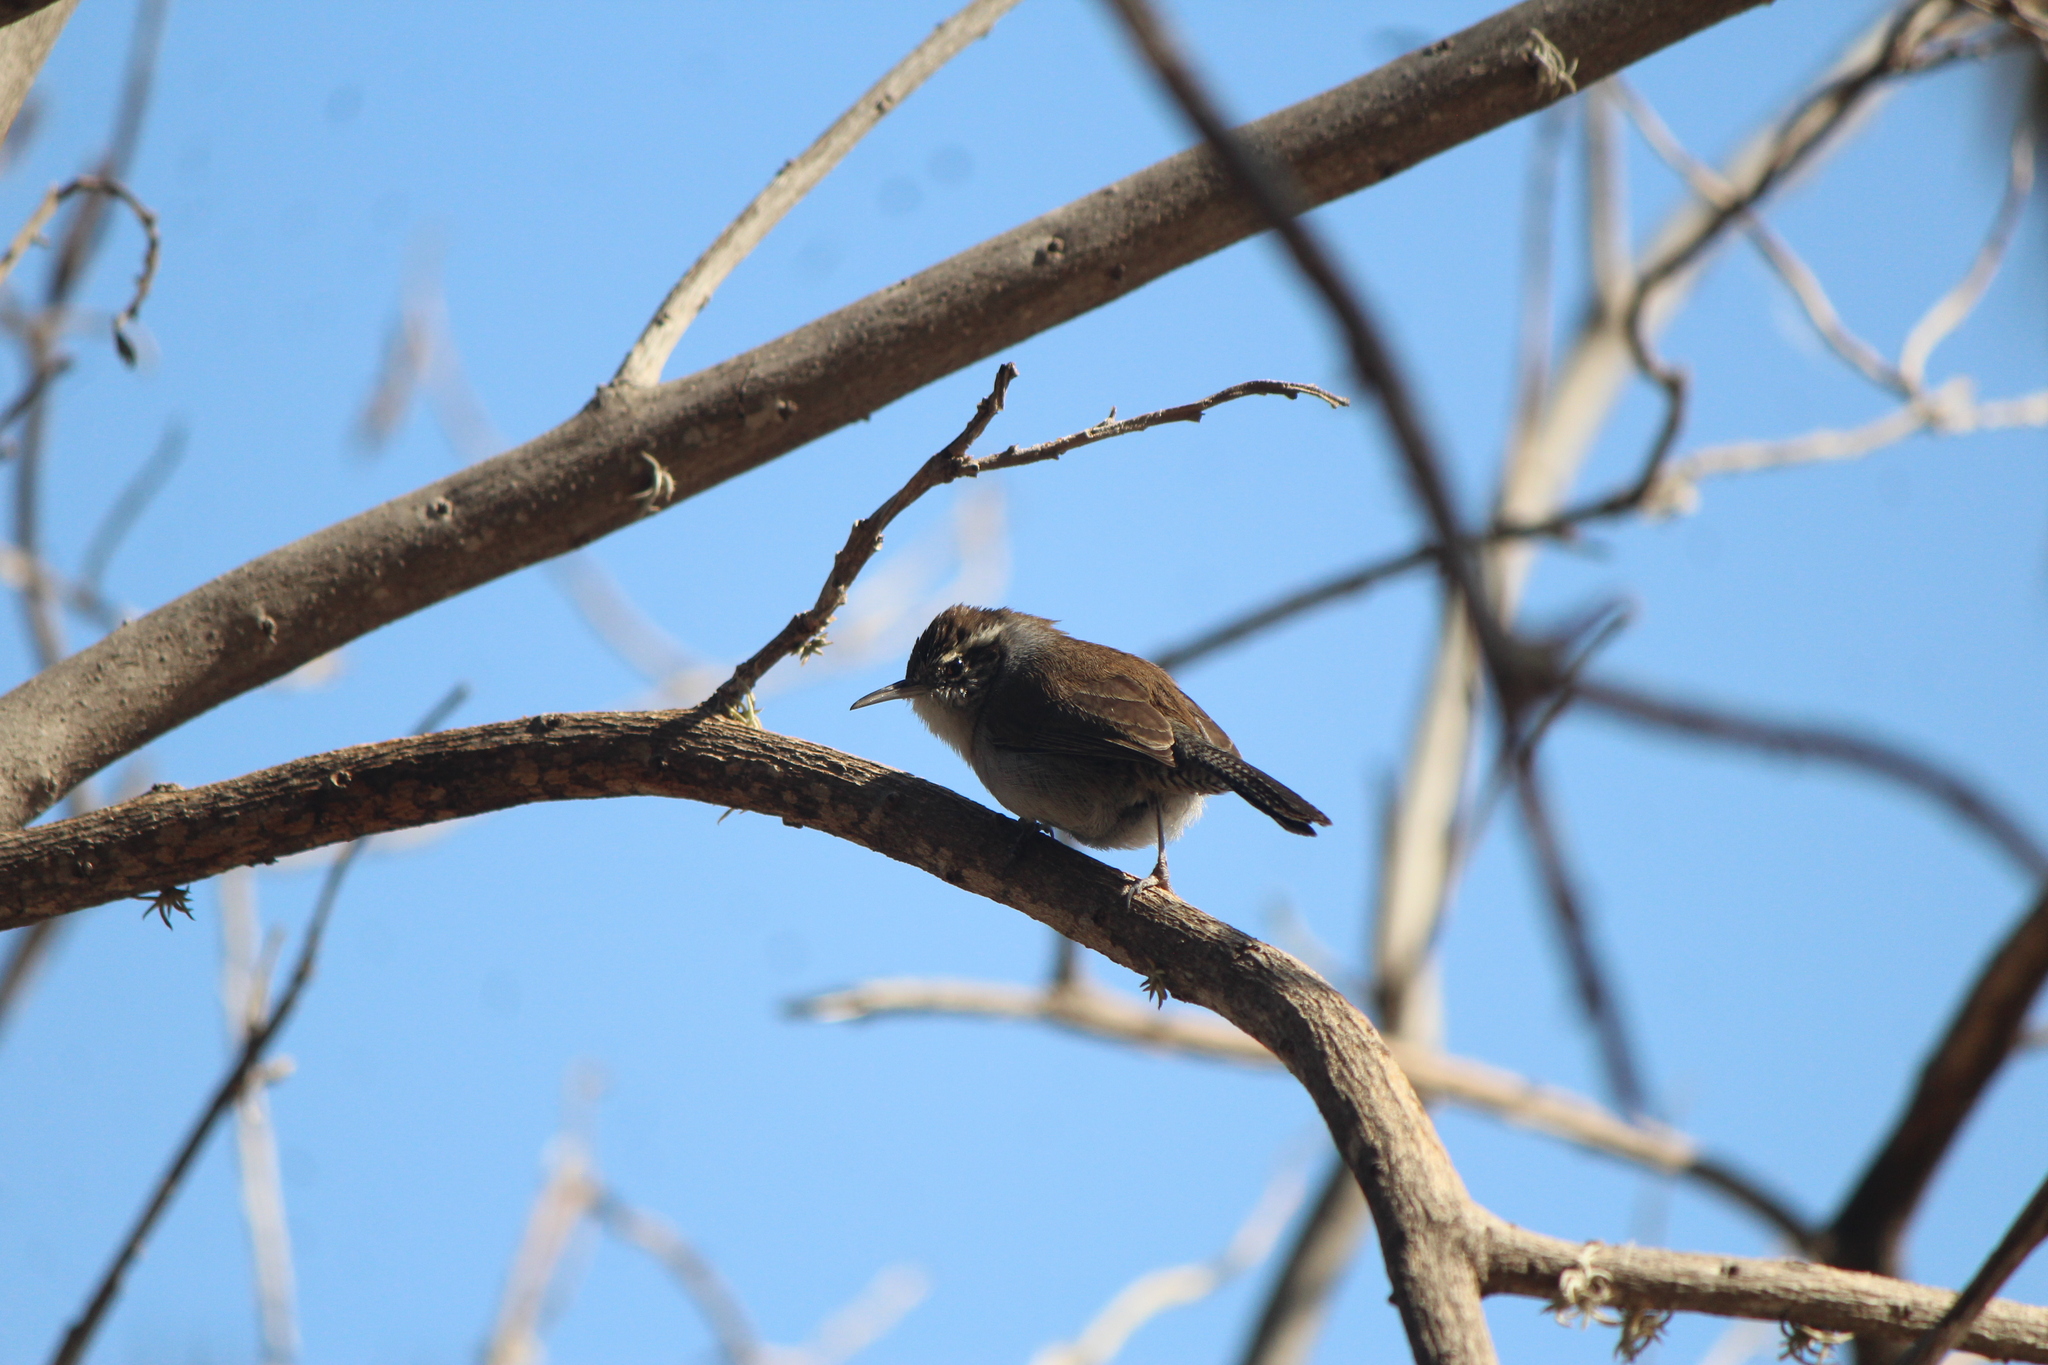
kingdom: Animalia
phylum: Chordata
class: Aves
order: Passeriformes
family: Troglodytidae
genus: Thryomanes
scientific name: Thryomanes bewickii
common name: Bewick's wren
